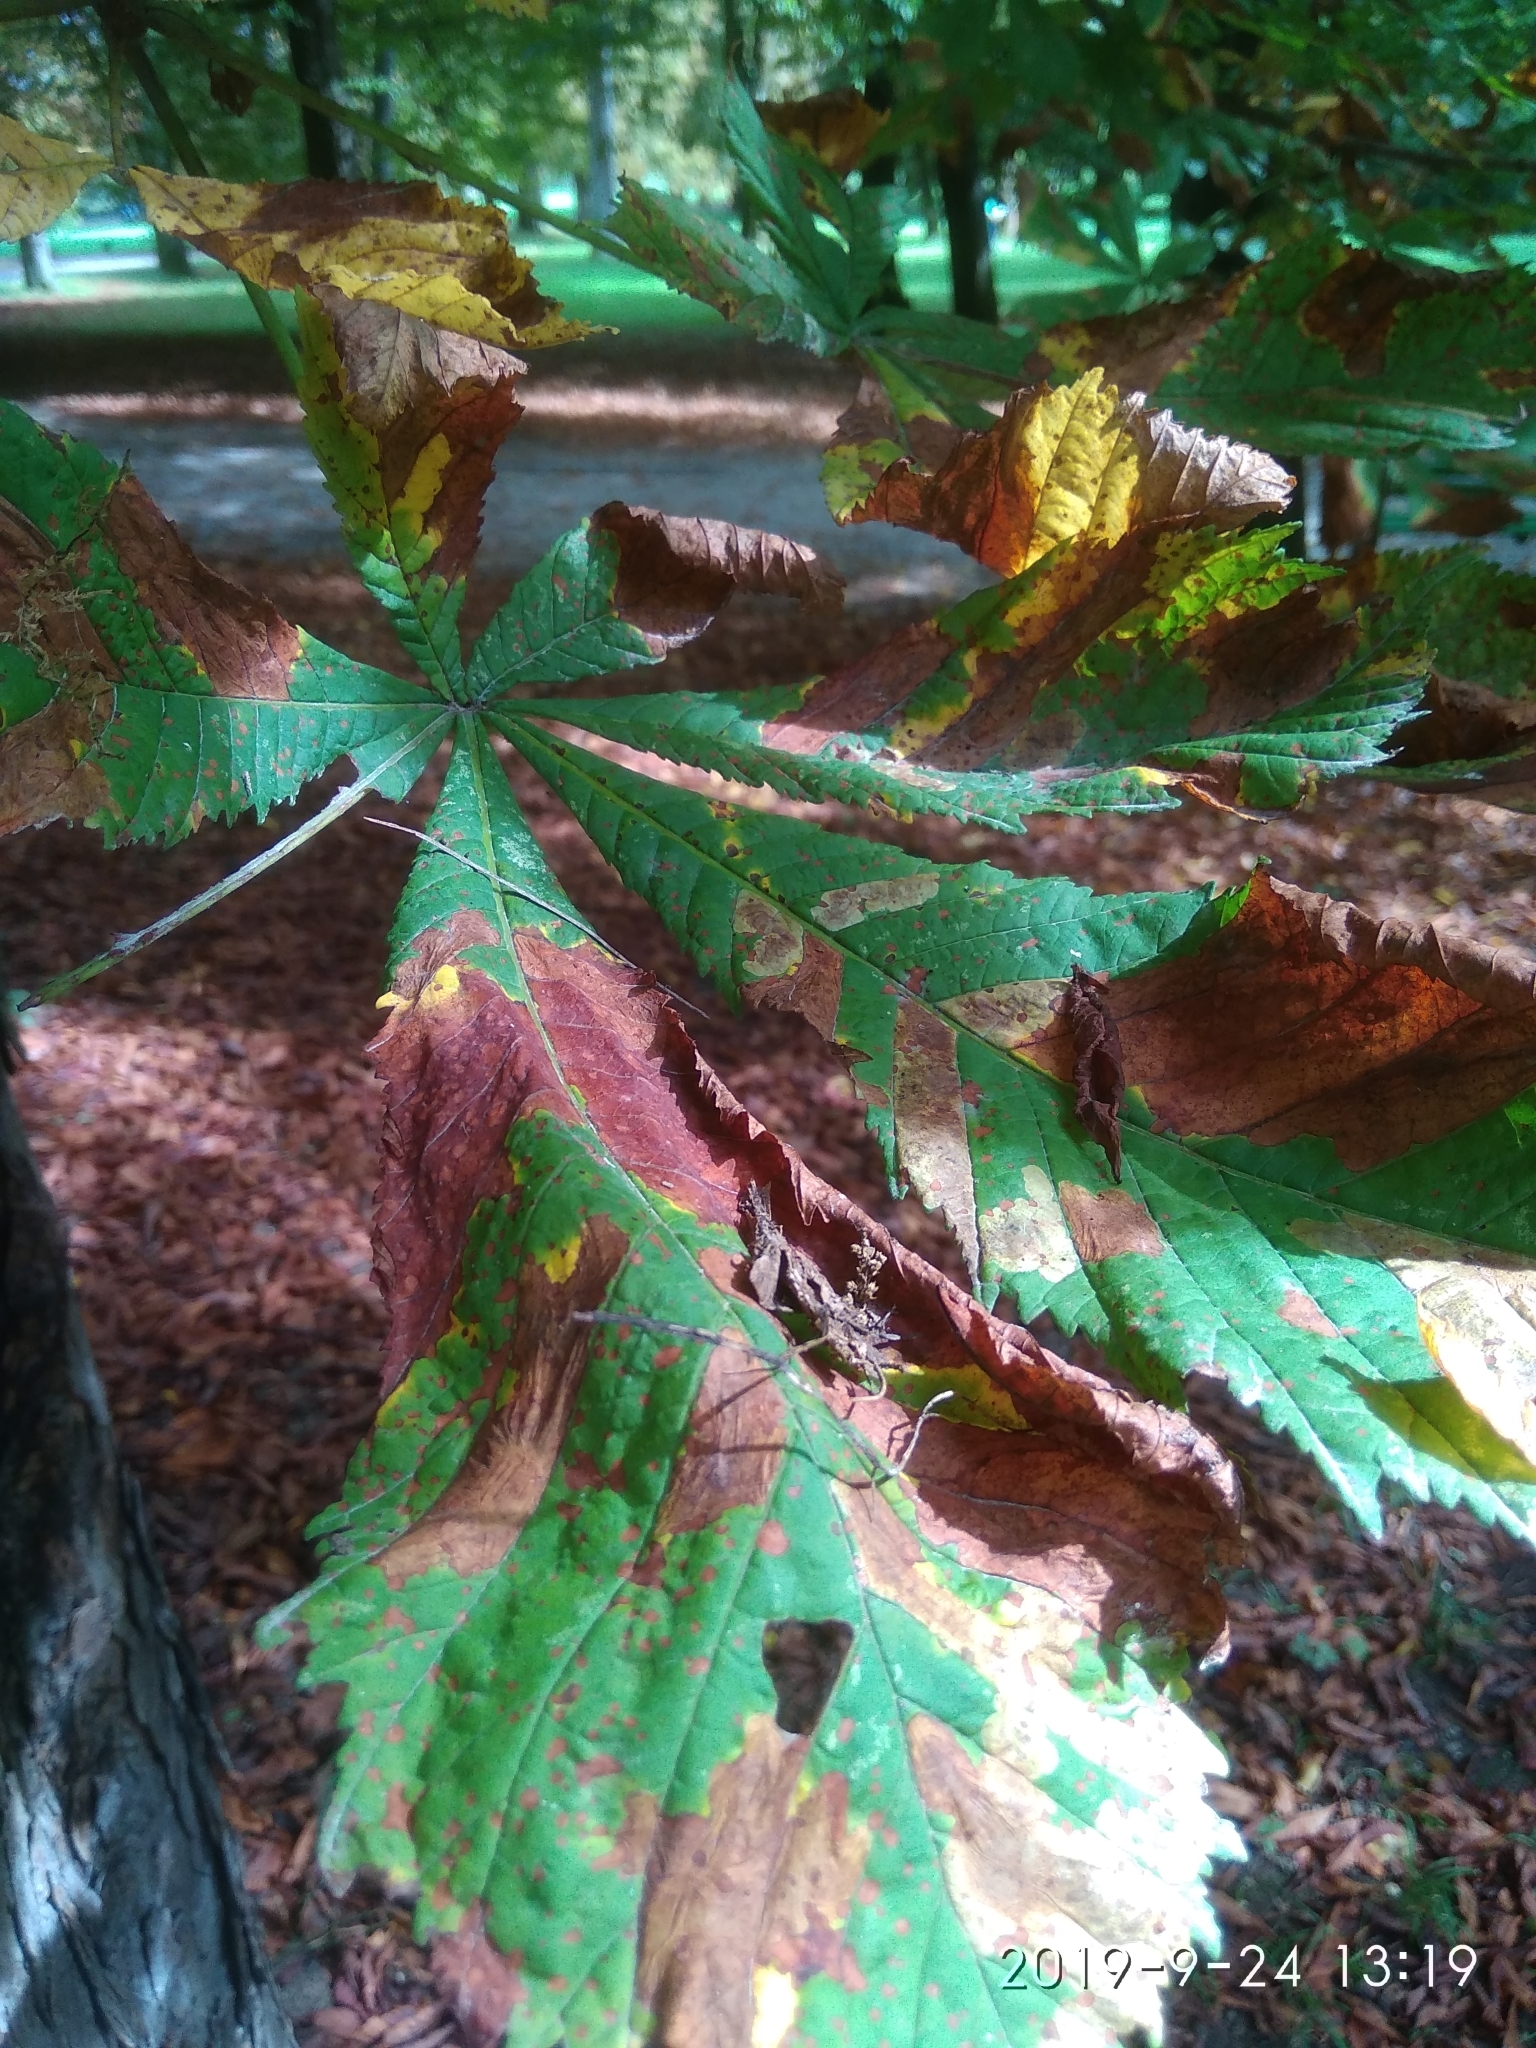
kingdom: Animalia
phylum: Arthropoda
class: Insecta
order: Lepidoptera
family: Gracillariidae
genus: Cameraria
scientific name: Cameraria ohridella
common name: Horse-chestnut leaf-miner
